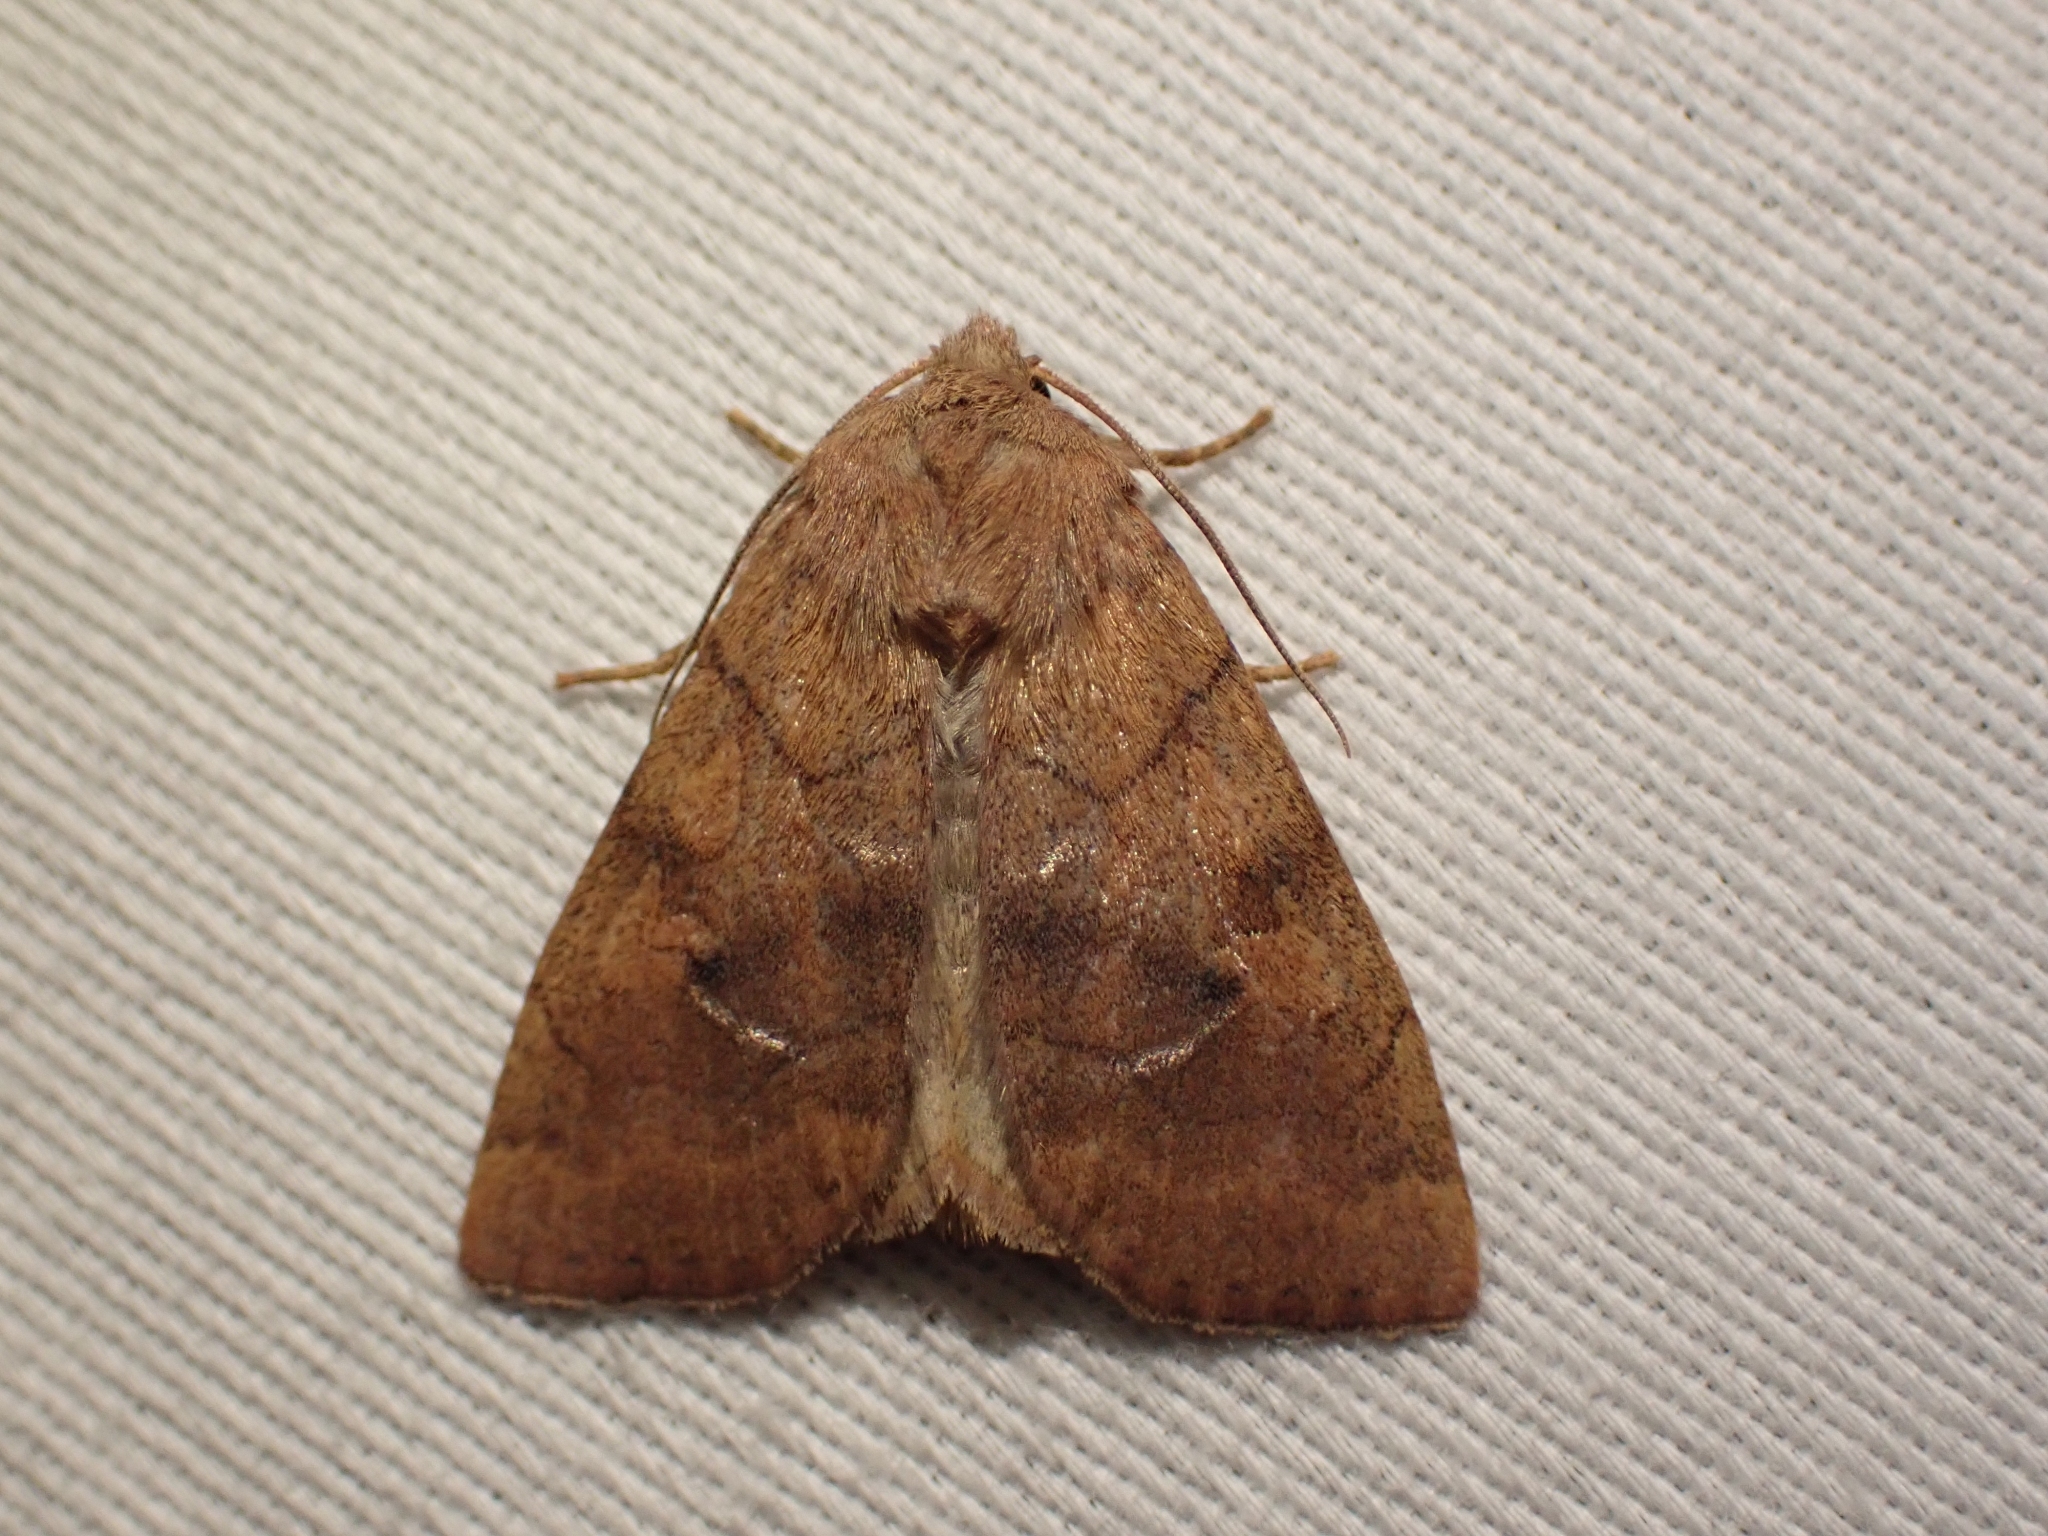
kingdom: Animalia
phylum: Arthropoda
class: Insecta
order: Lepidoptera
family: Noctuidae
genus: Enargia
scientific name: Enargia infumata
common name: Smoked sallow
